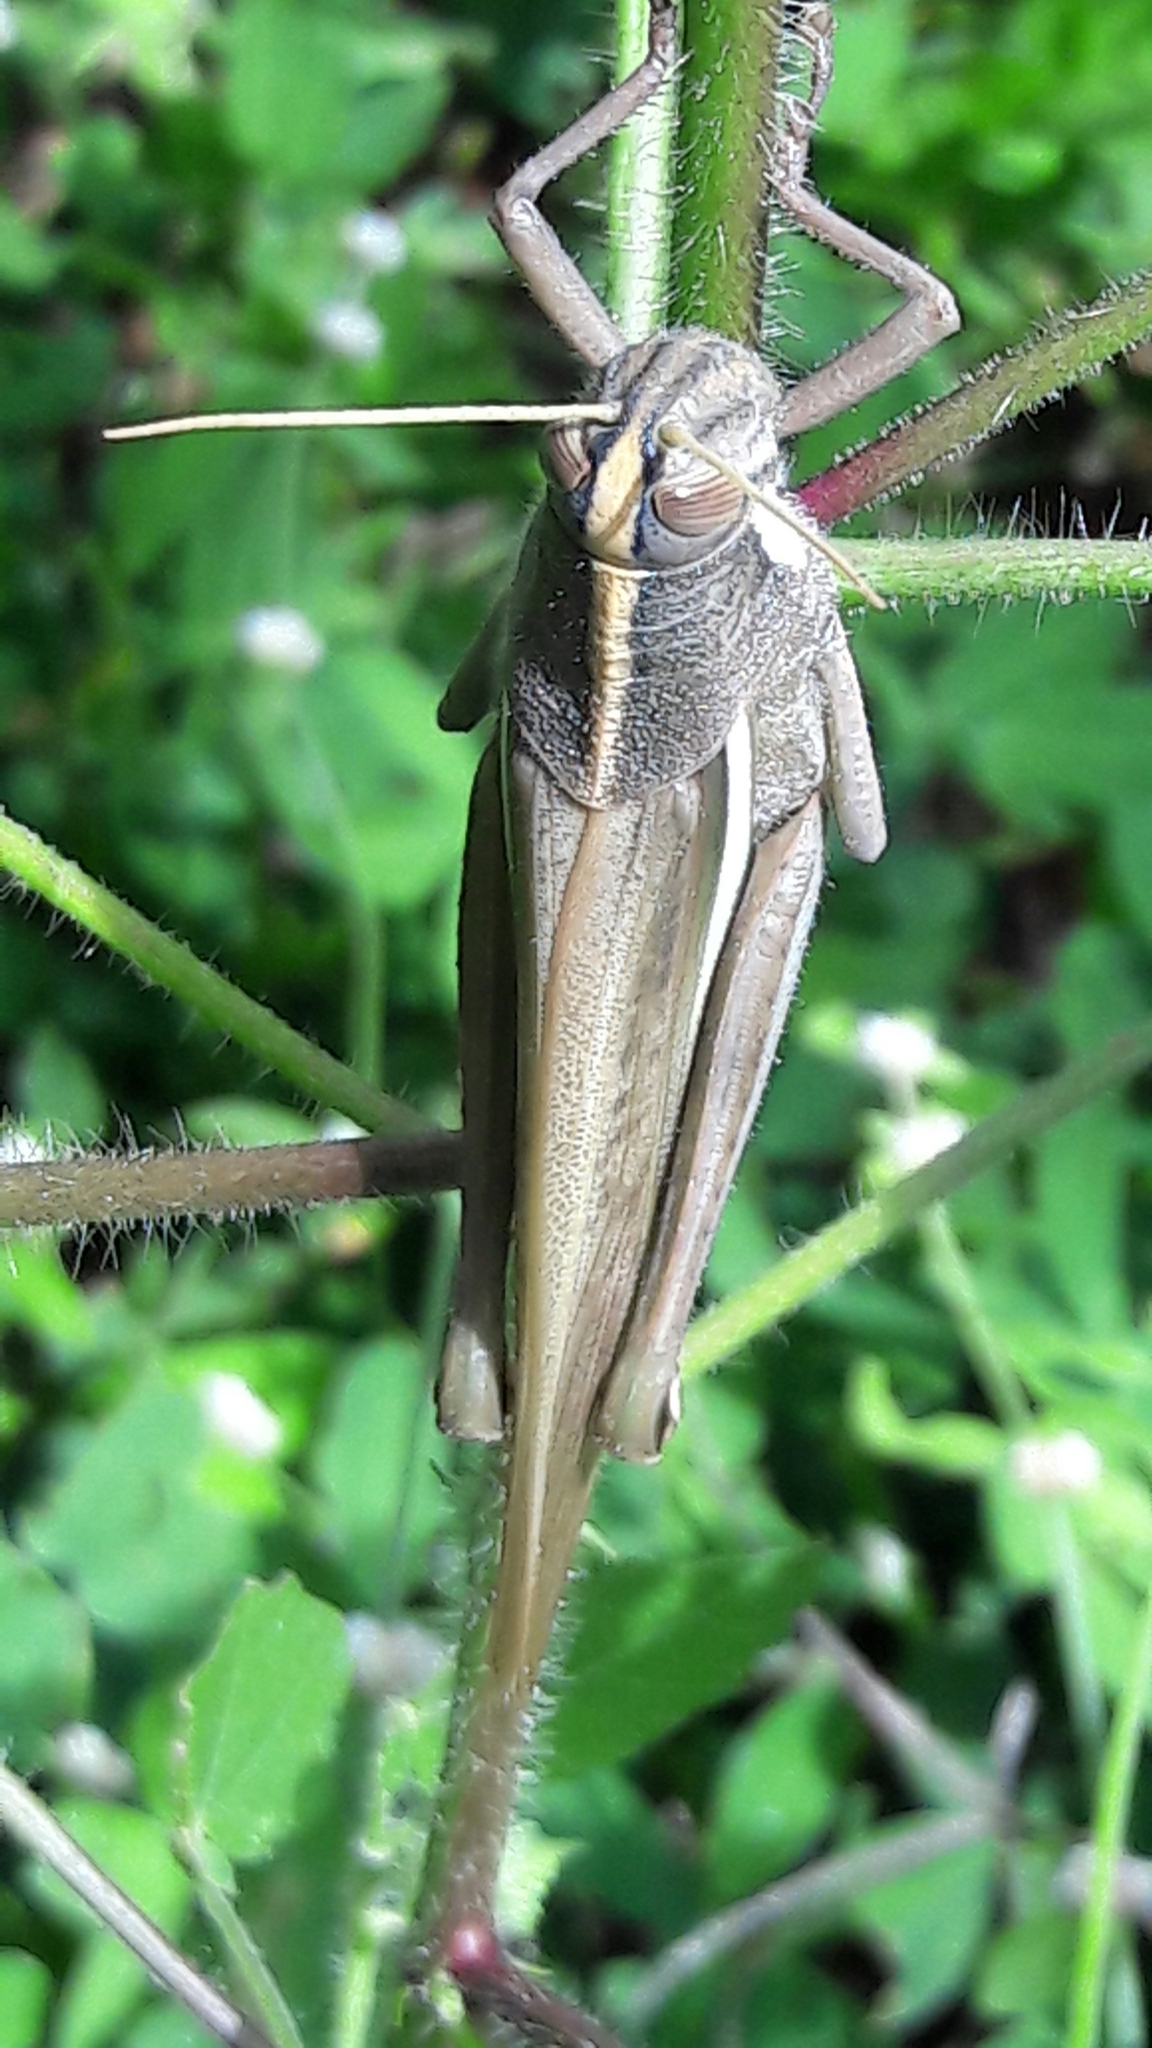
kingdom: Animalia
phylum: Arthropoda
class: Insecta
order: Orthoptera
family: Acrididae
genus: Schistocerca
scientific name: Schistocerca flavofasciata
